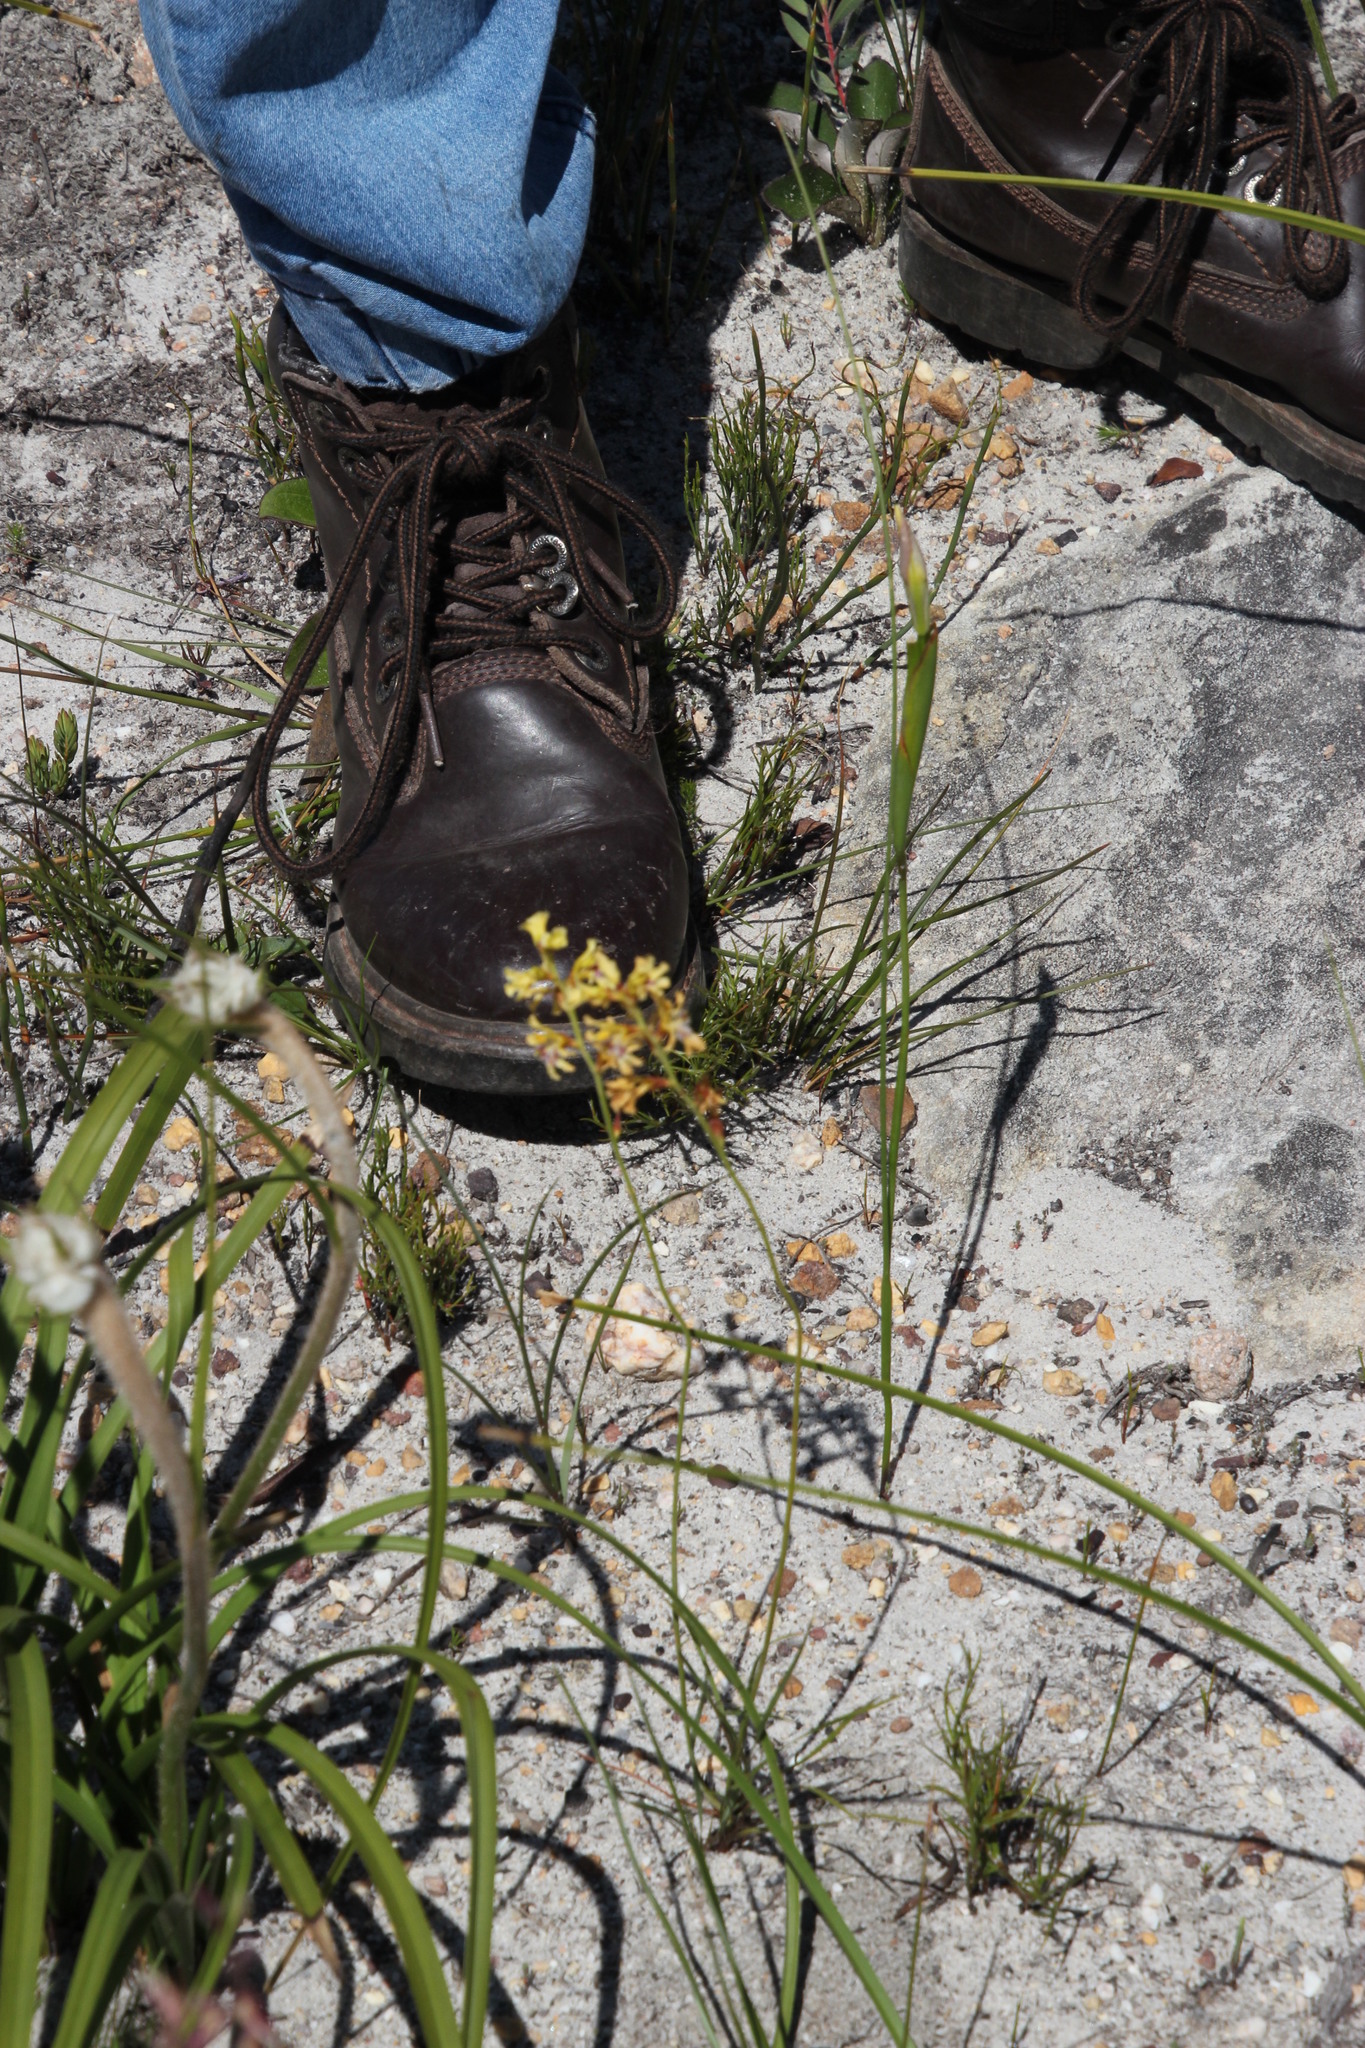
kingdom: Plantae
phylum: Tracheophyta
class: Liliopsida
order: Asparagales
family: Iridaceae
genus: Tritoniopsis
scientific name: Tritoniopsis unguicularis
